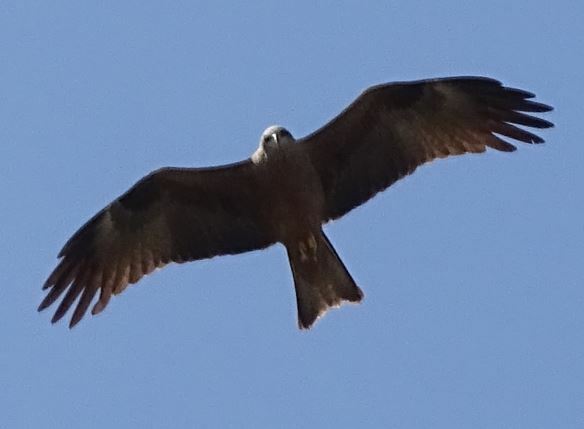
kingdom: Animalia
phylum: Chordata
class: Aves
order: Accipitriformes
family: Accipitridae
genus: Milvus
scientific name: Milvus migrans
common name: Black kite
